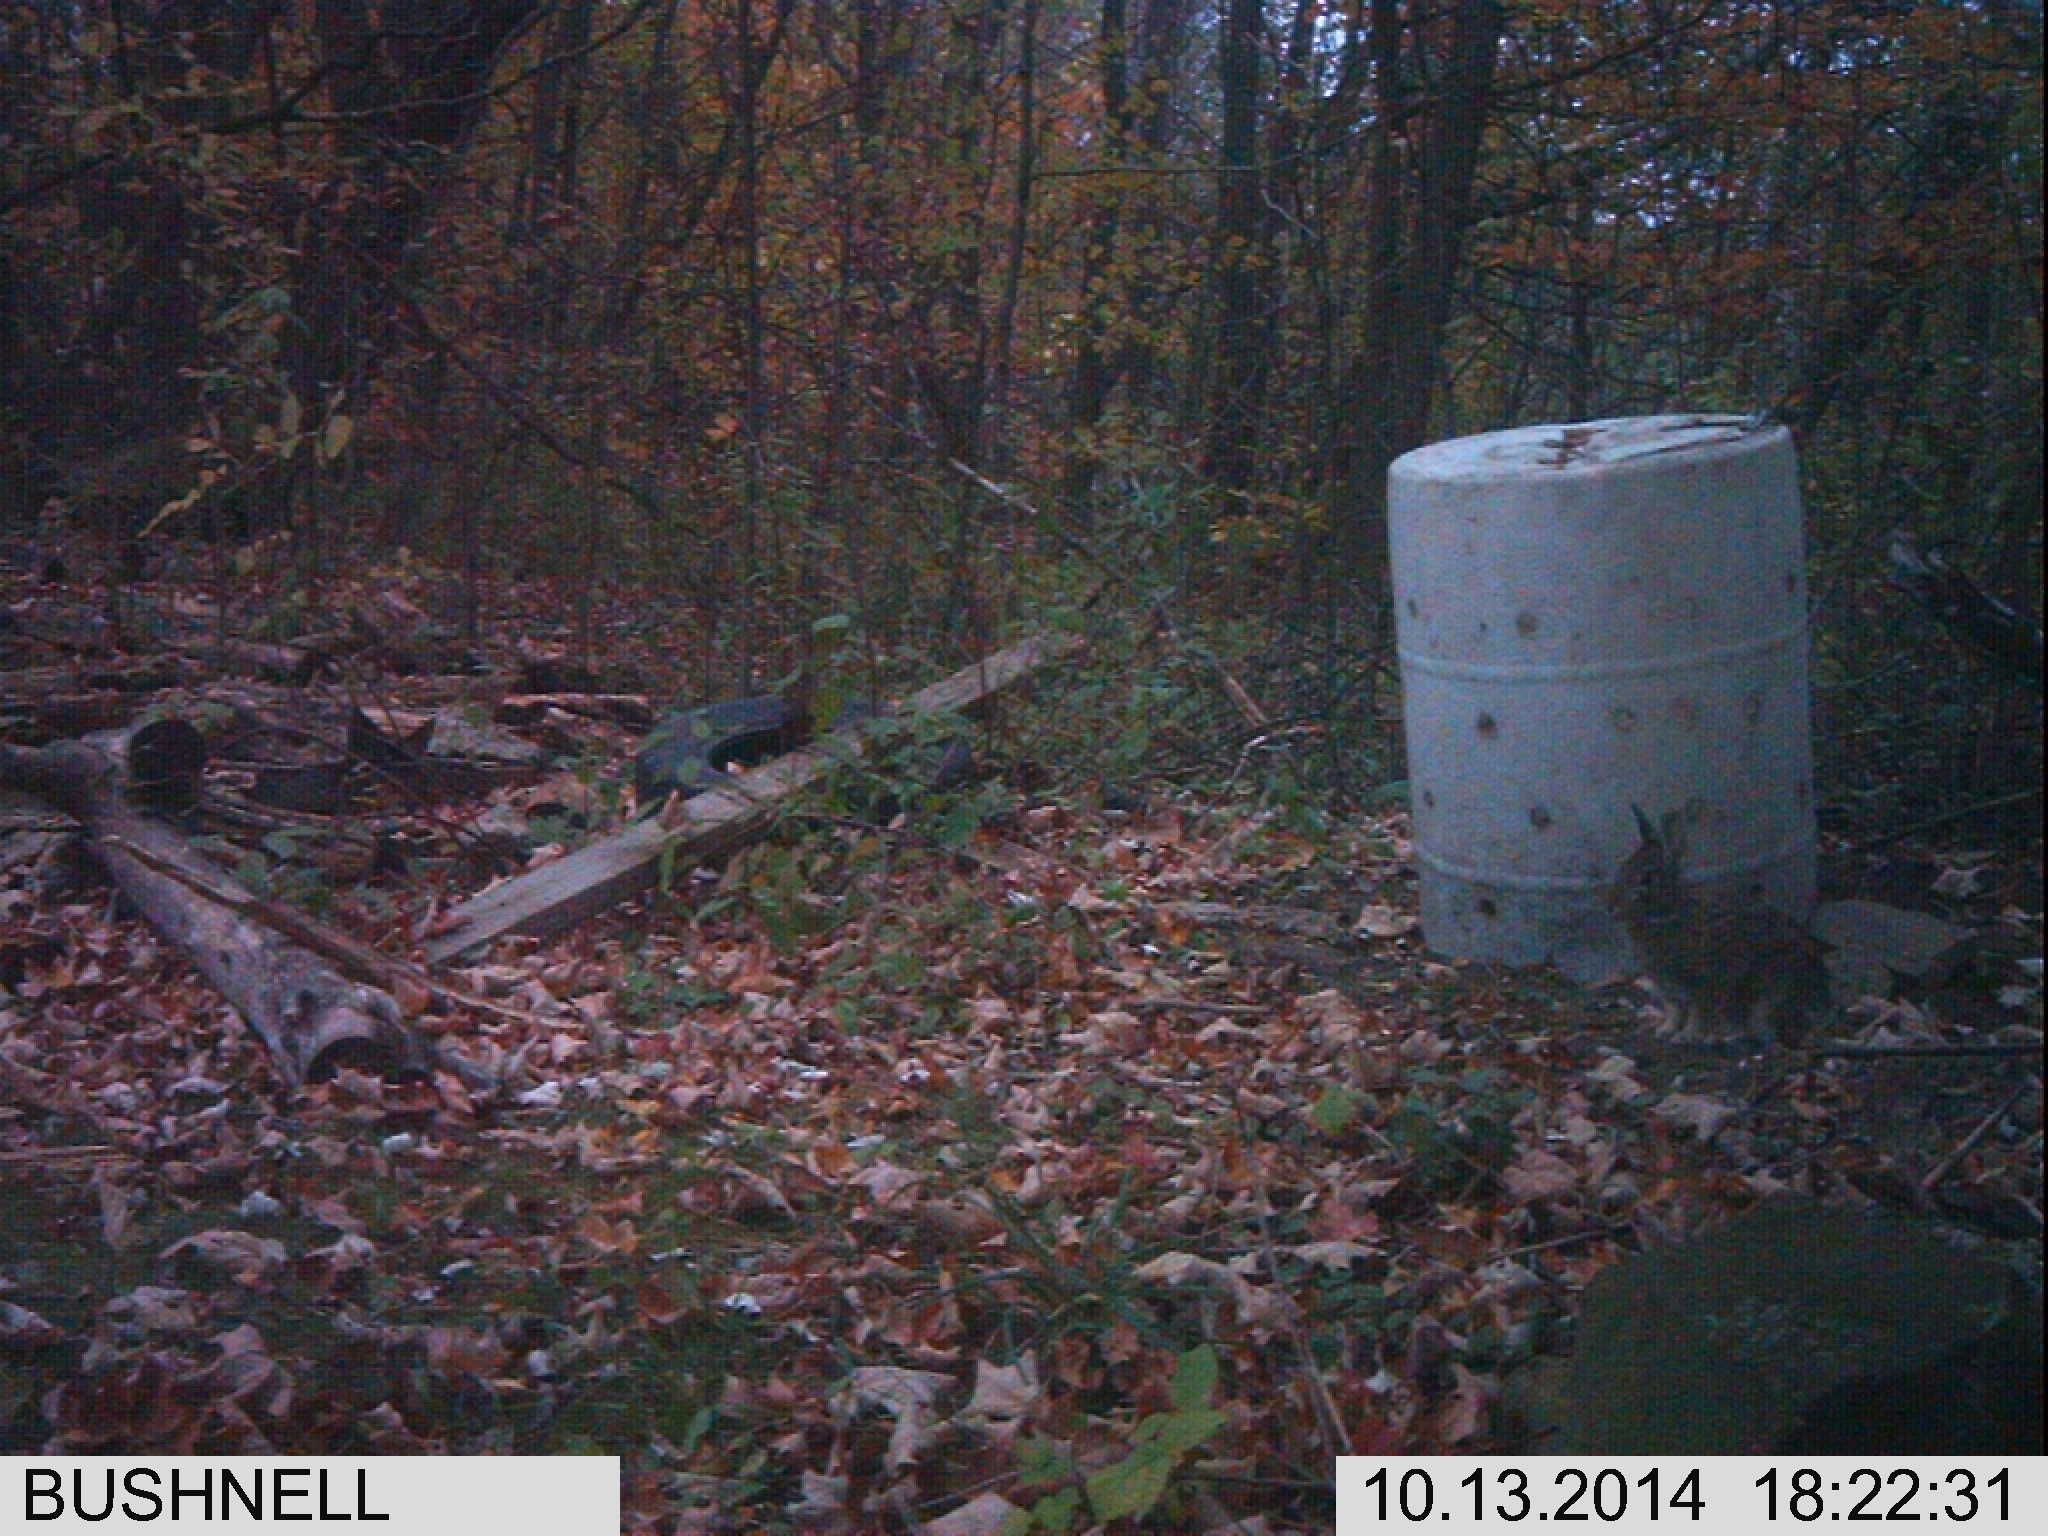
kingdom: Animalia
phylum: Chordata
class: Mammalia
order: Lagomorpha
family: Leporidae
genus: Sylvilagus
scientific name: Sylvilagus floridanus
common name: Eastern cottontail
